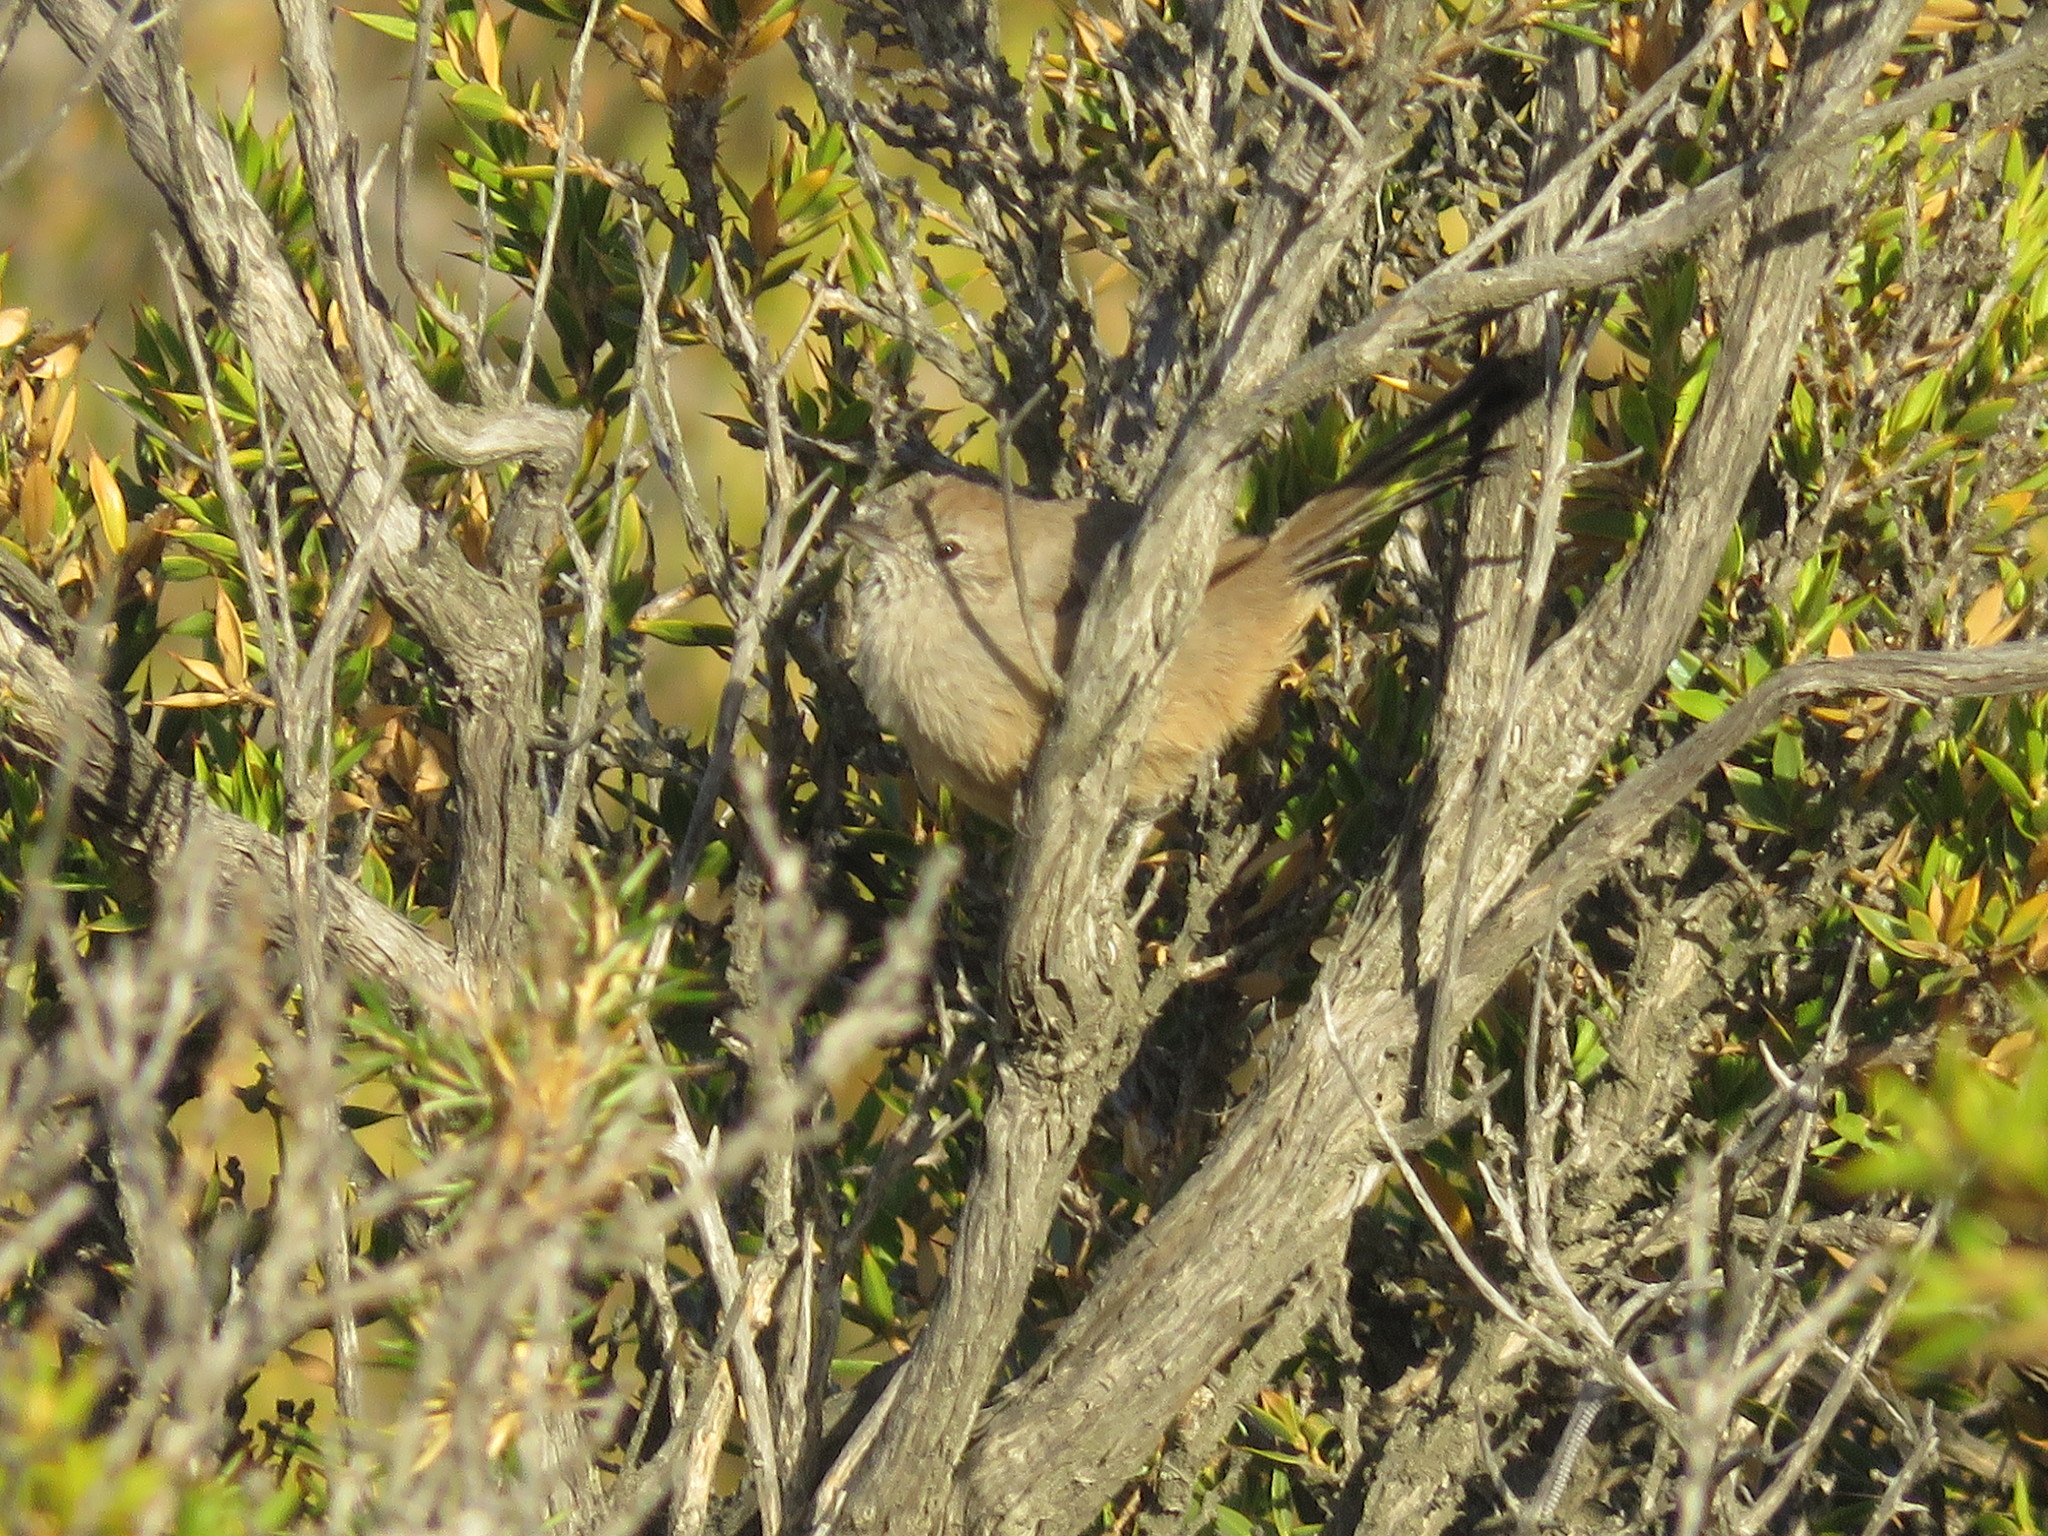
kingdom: Animalia
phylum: Chordata
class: Aves
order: Passeriformes
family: Furnariidae
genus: Asthenes
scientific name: Asthenes patagonica
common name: Patagonian canastero
